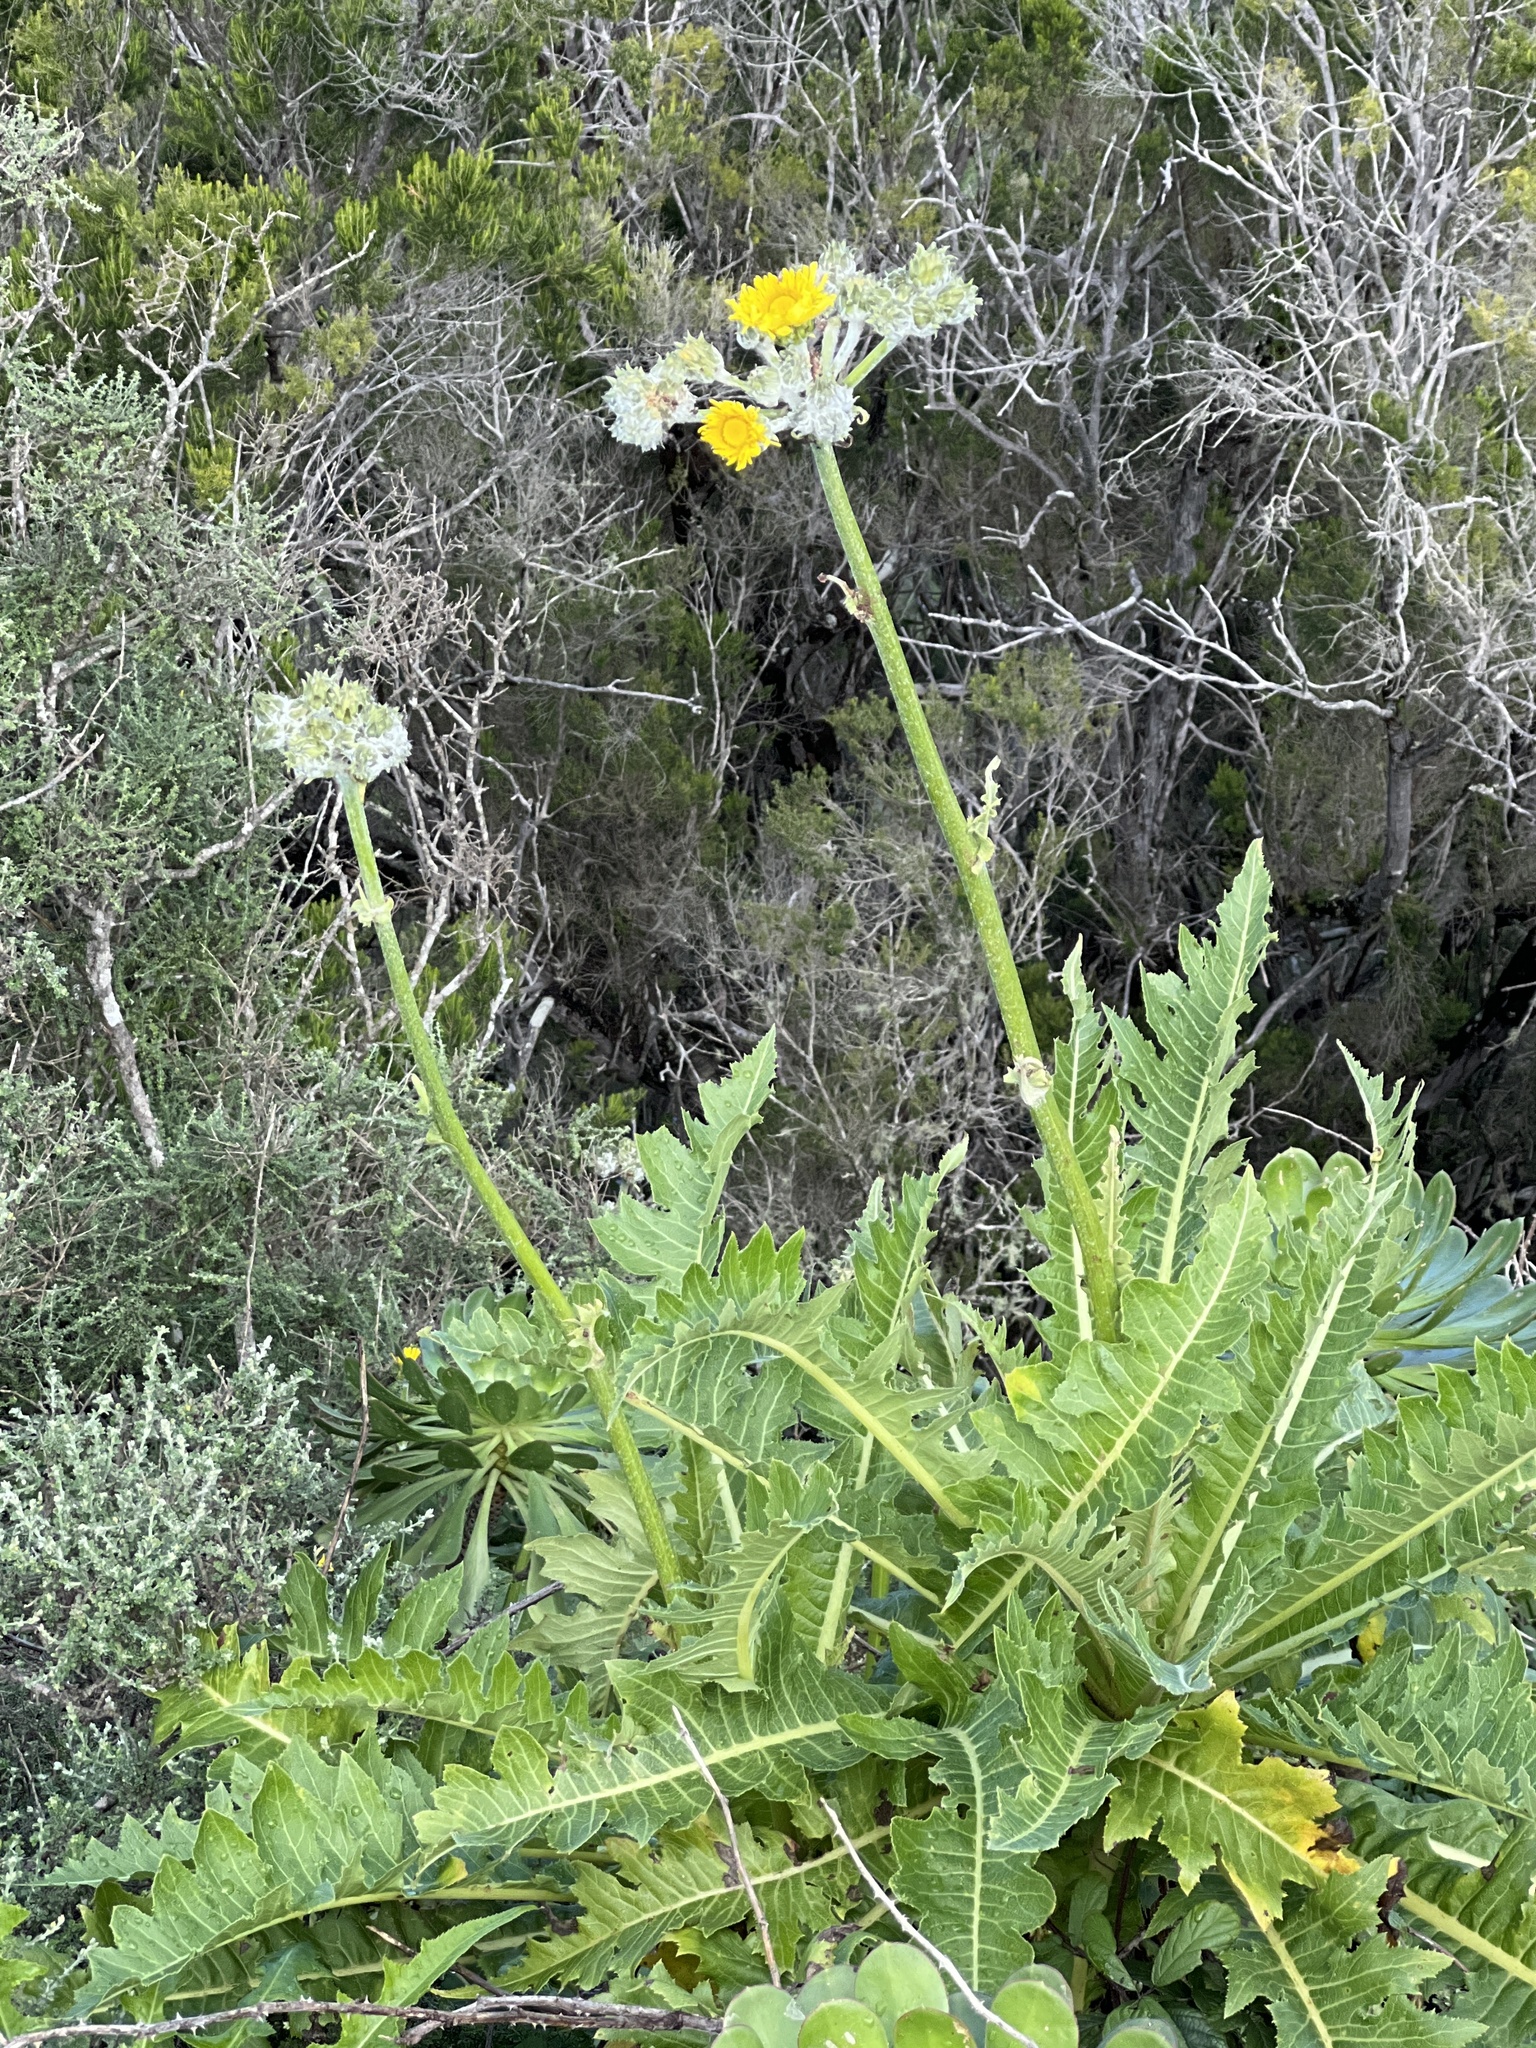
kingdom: Plantae
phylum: Tracheophyta
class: Magnoliopsida
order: Asterales
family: Asteraceae
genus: Sonchus
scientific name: Sonchus acaulis
